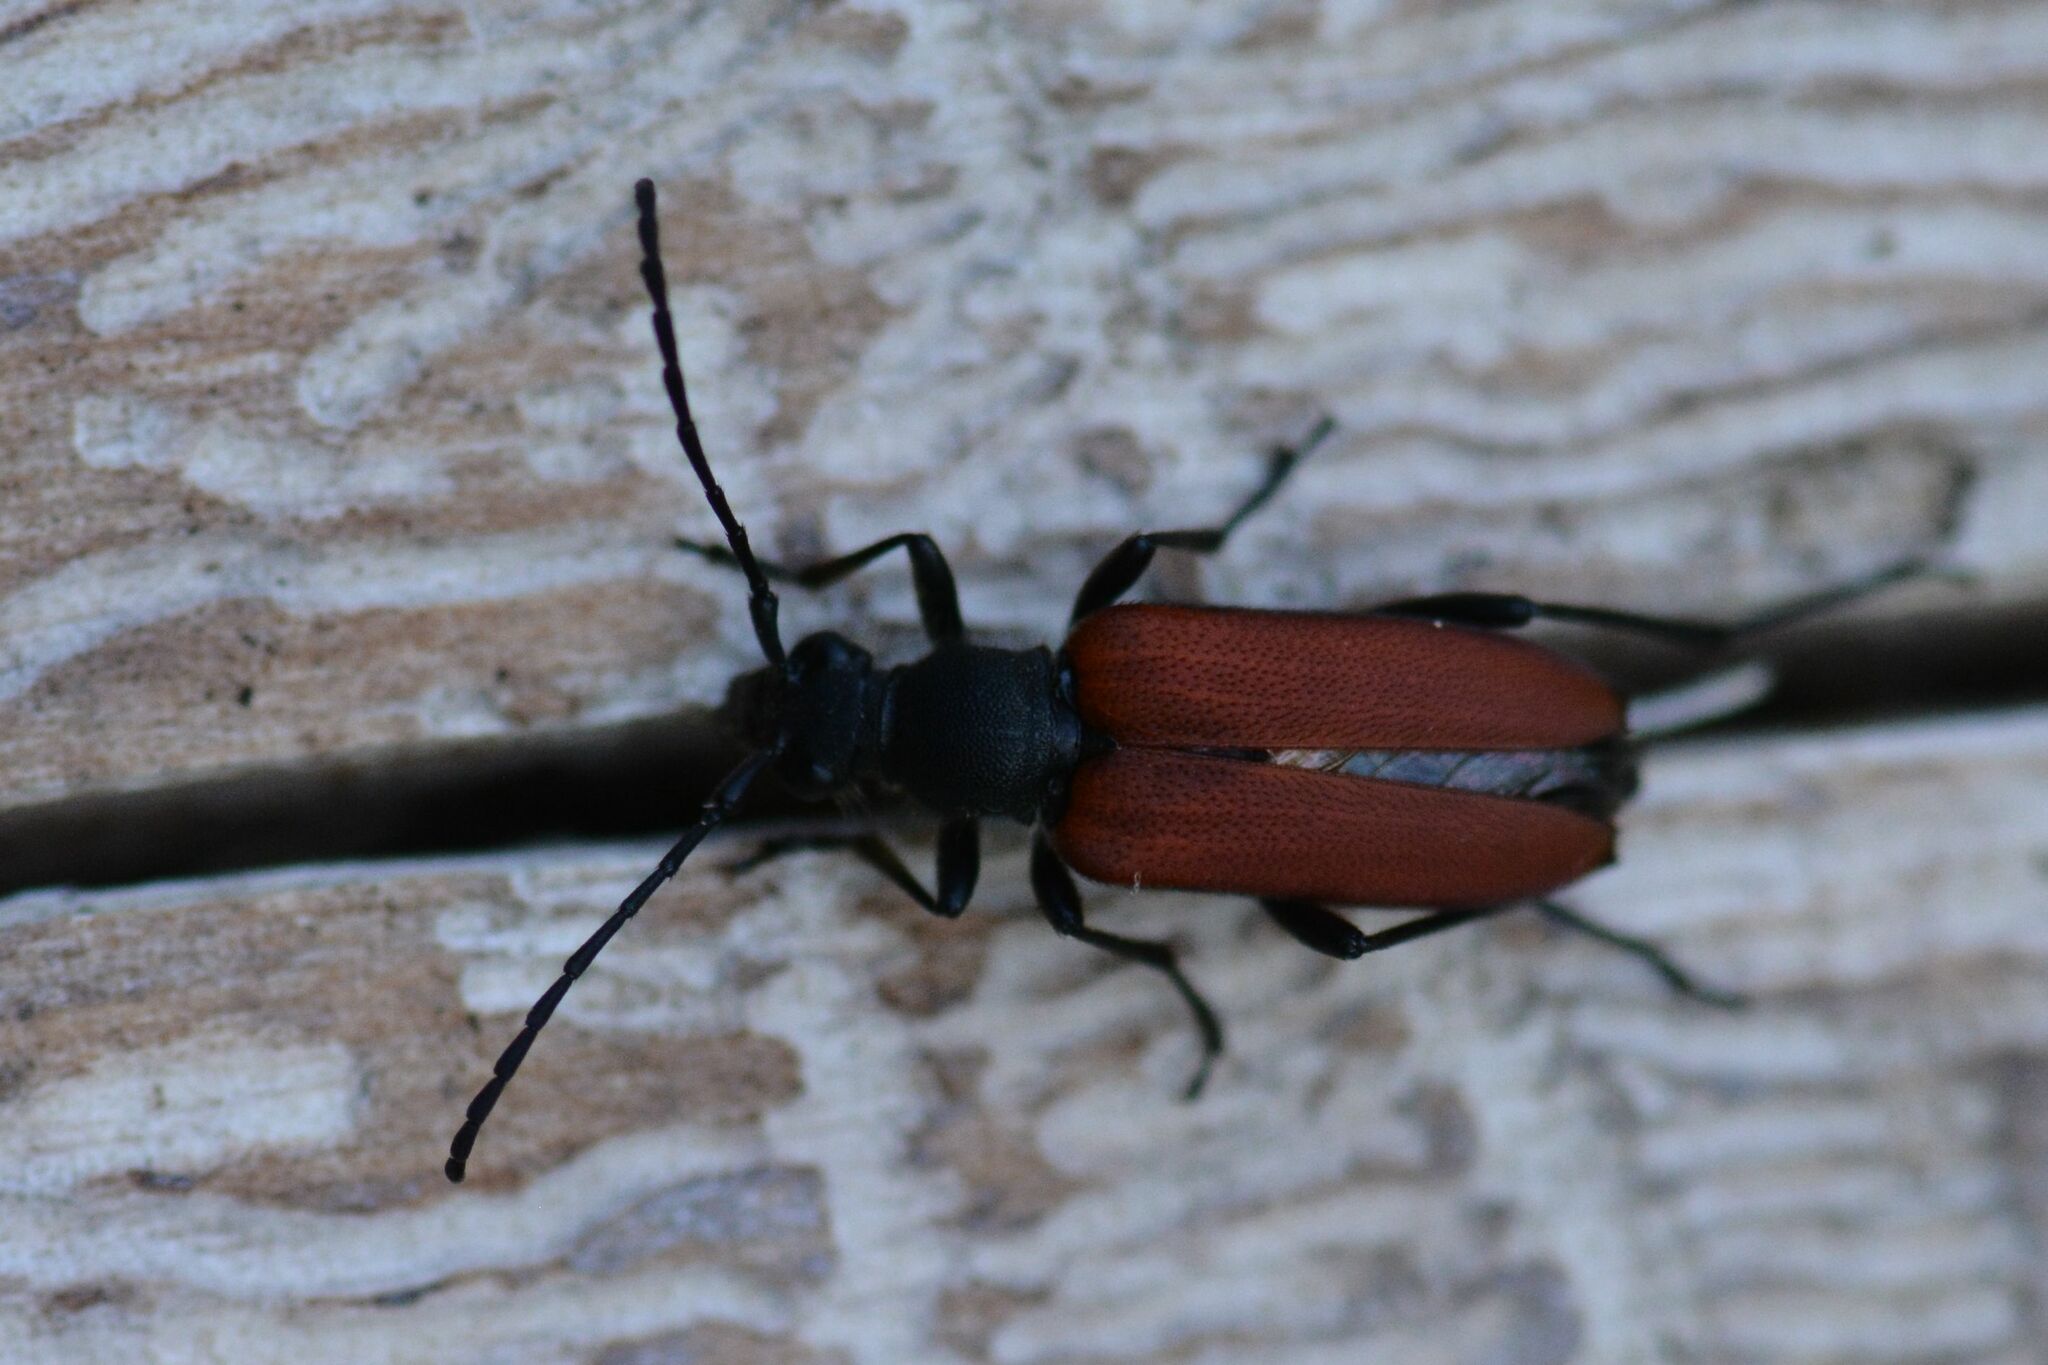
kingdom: Animalia
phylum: Arthropoda
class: Insecta
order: Coleoptera
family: Cerambycidae
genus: Anastrangalia
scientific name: Anastrangalia sanguinolenta
